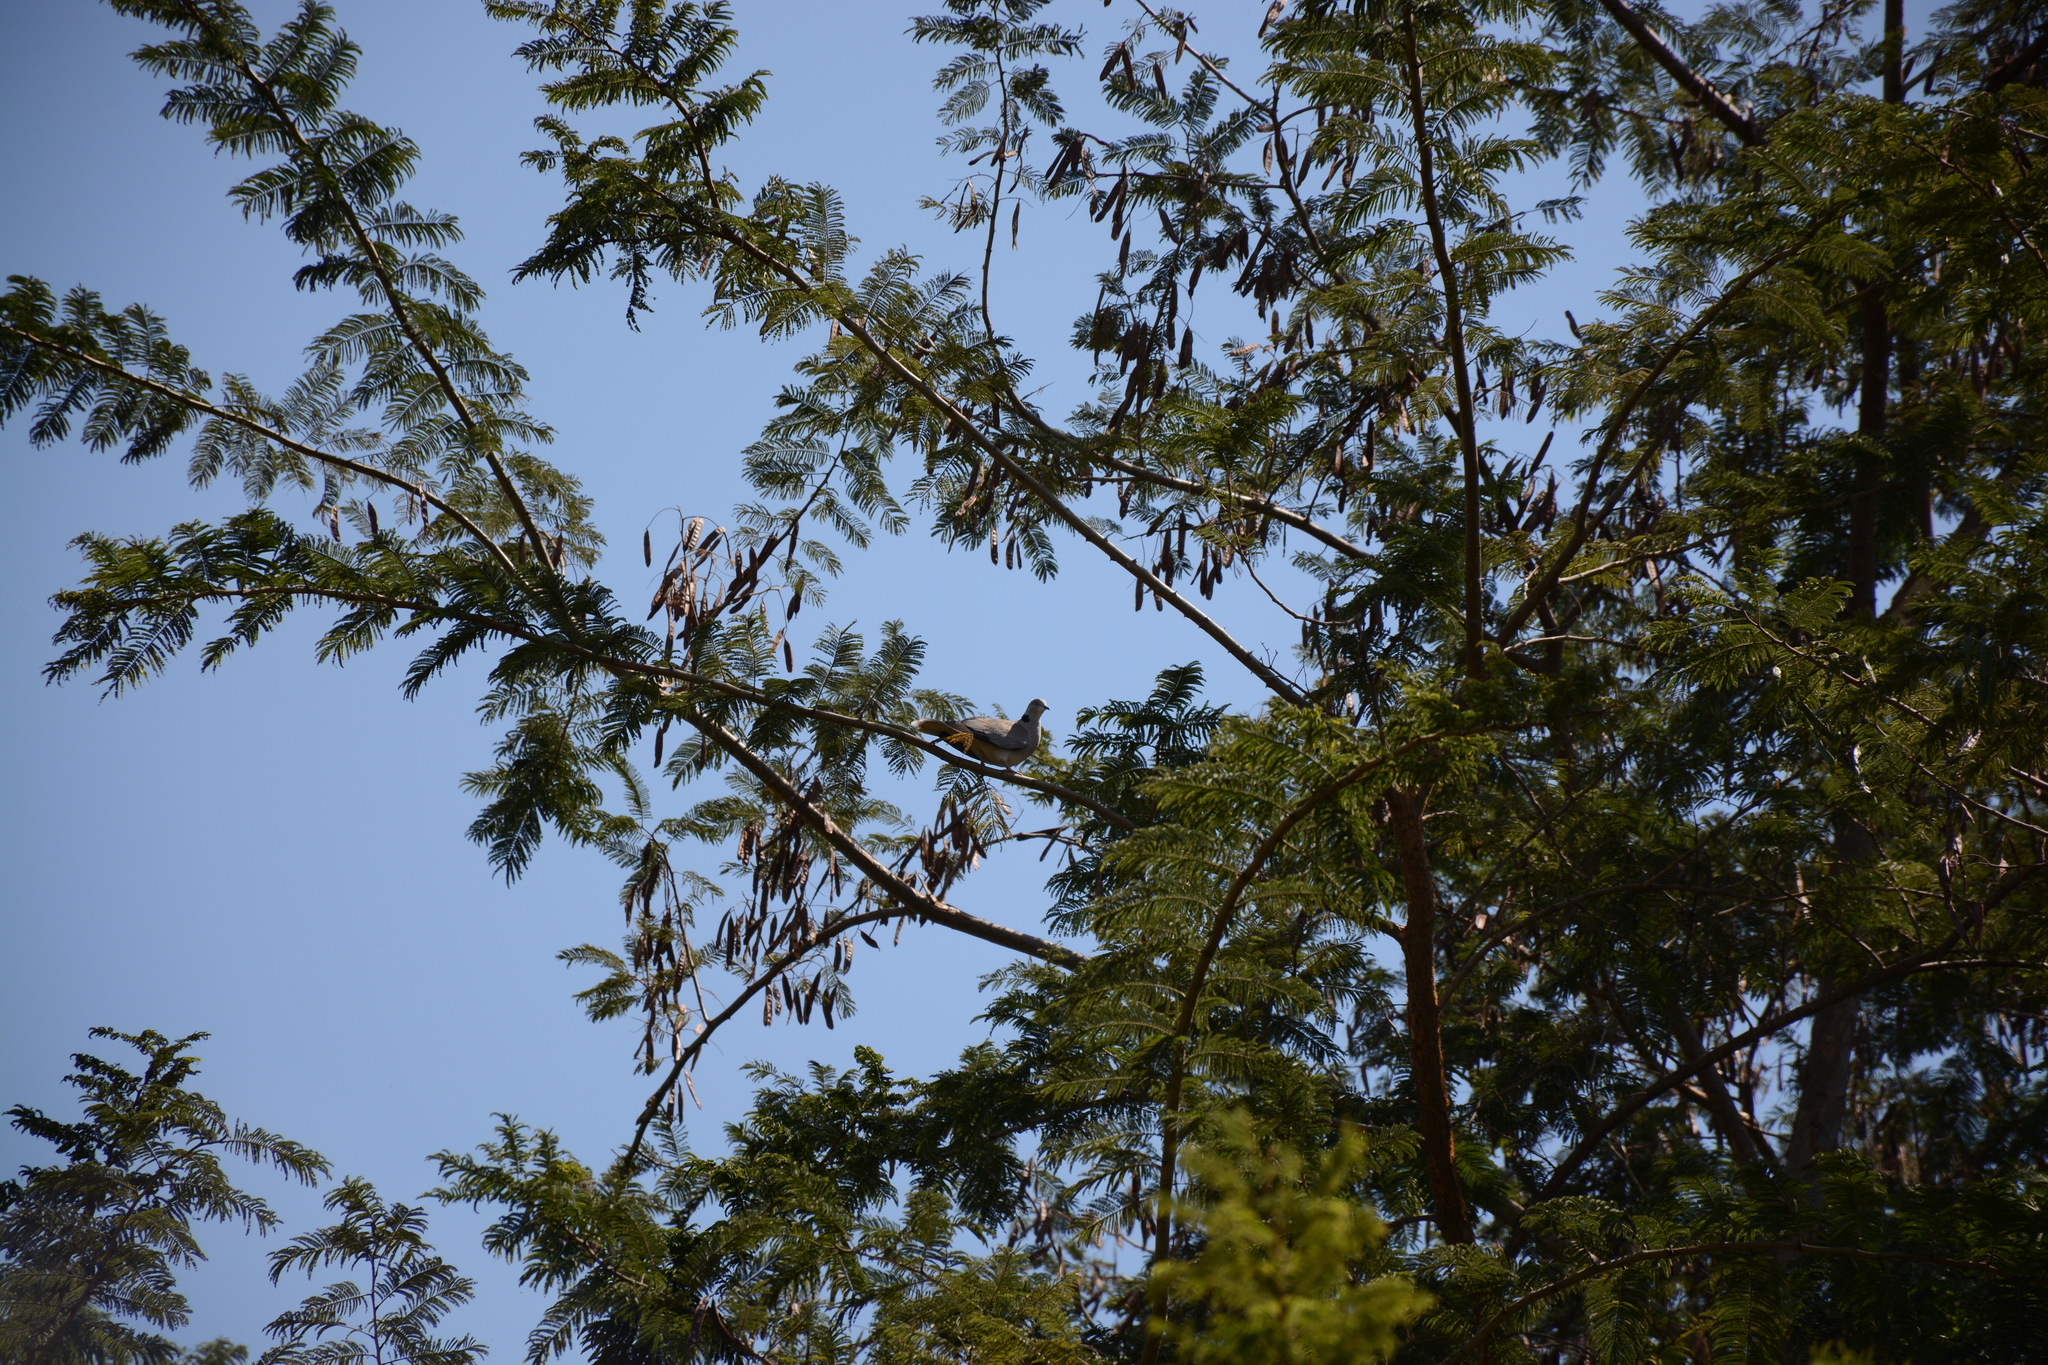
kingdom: Animalia
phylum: Chordata
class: Aves
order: Columbiformes
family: Columbidae
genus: Streptopelia
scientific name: Streptopelia decipiens
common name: Mourning collared dove
